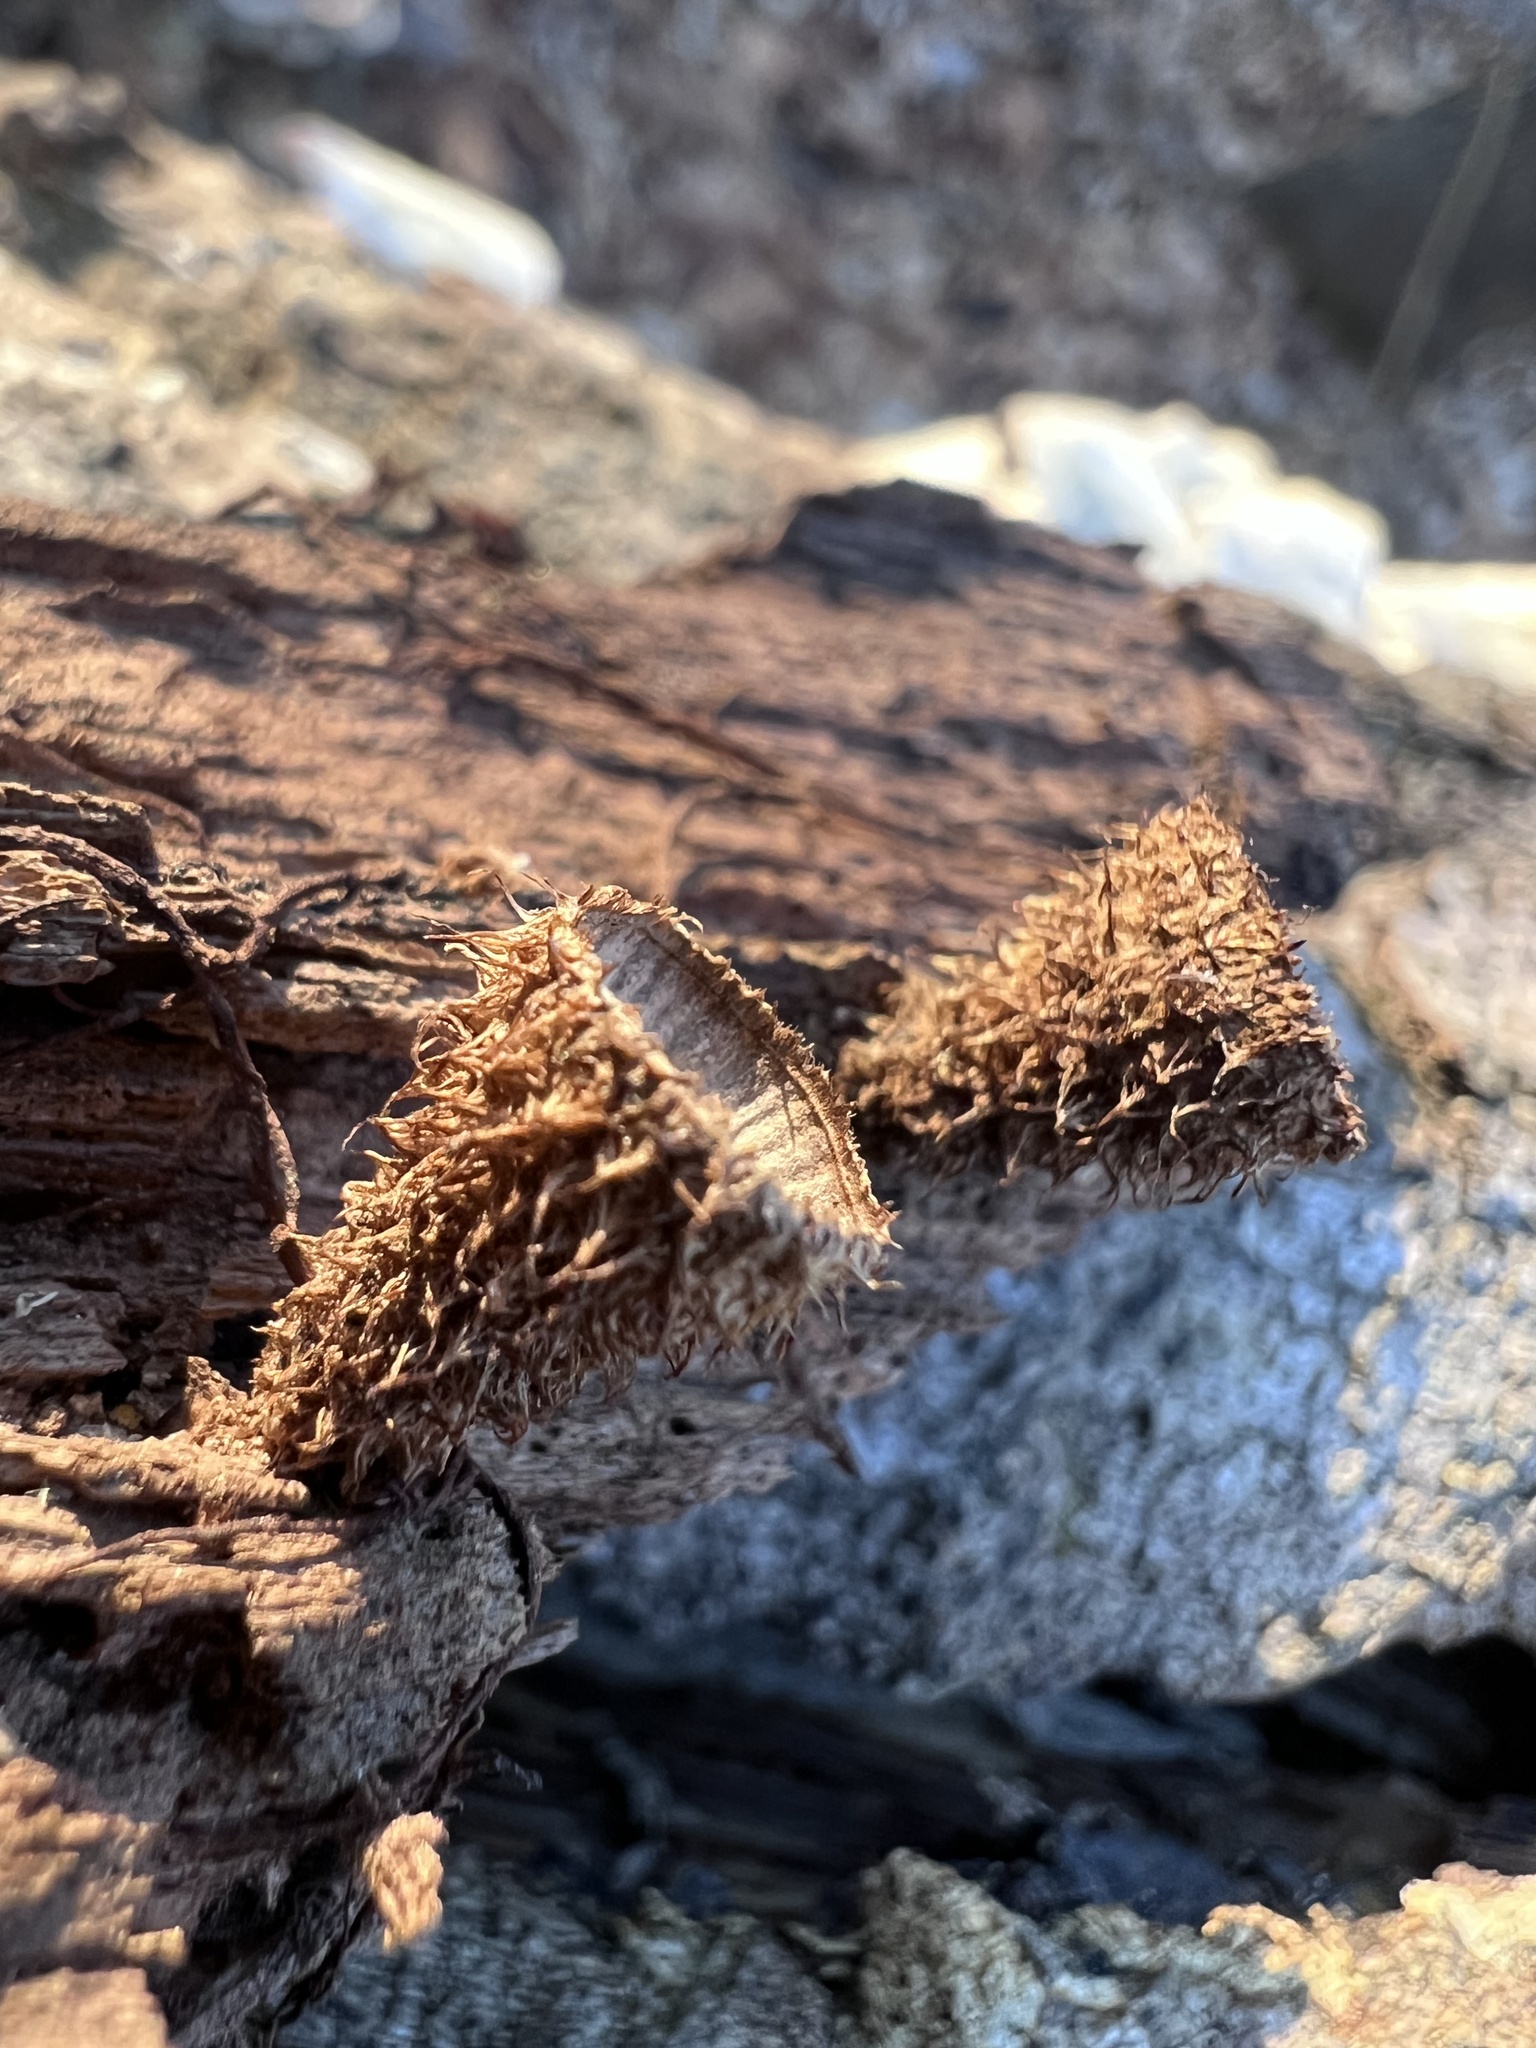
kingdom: Fungi
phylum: Basidiomycota
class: Agaricomycetes
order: Agaricales
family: Agaricaceae
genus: Cyathus
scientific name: Cyathus striatus
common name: Fluted bird's nest
